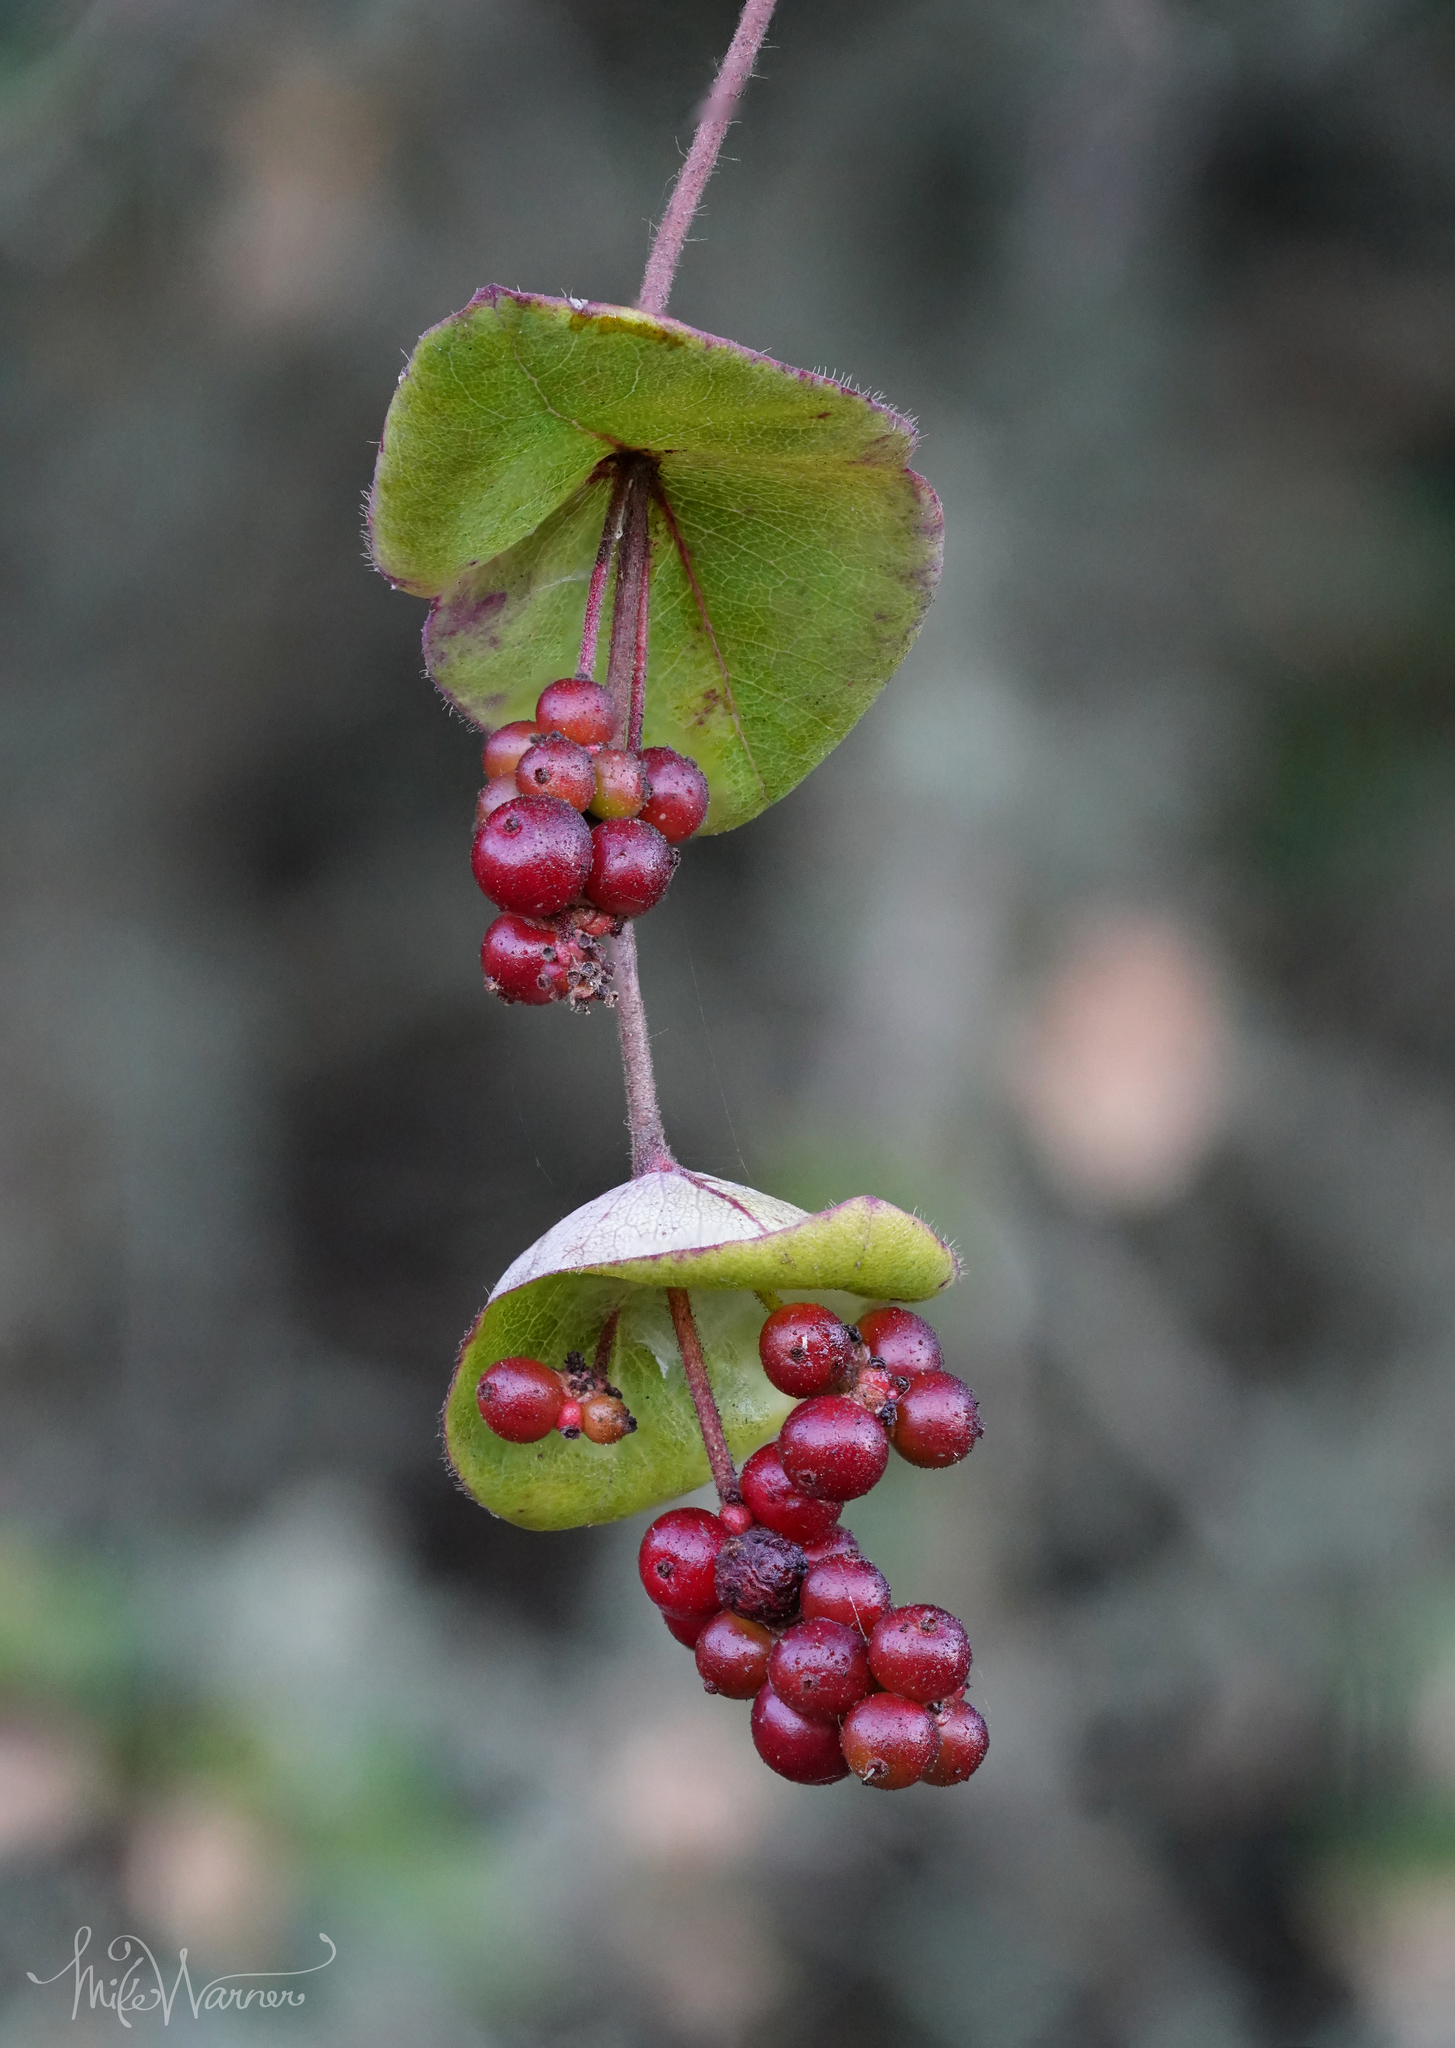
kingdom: Plantae
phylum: Tracheophyta
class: Magnoliopsida
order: Dipsacales
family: Caprifoliaceae
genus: Lonicera
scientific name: Lonicera hispidula
